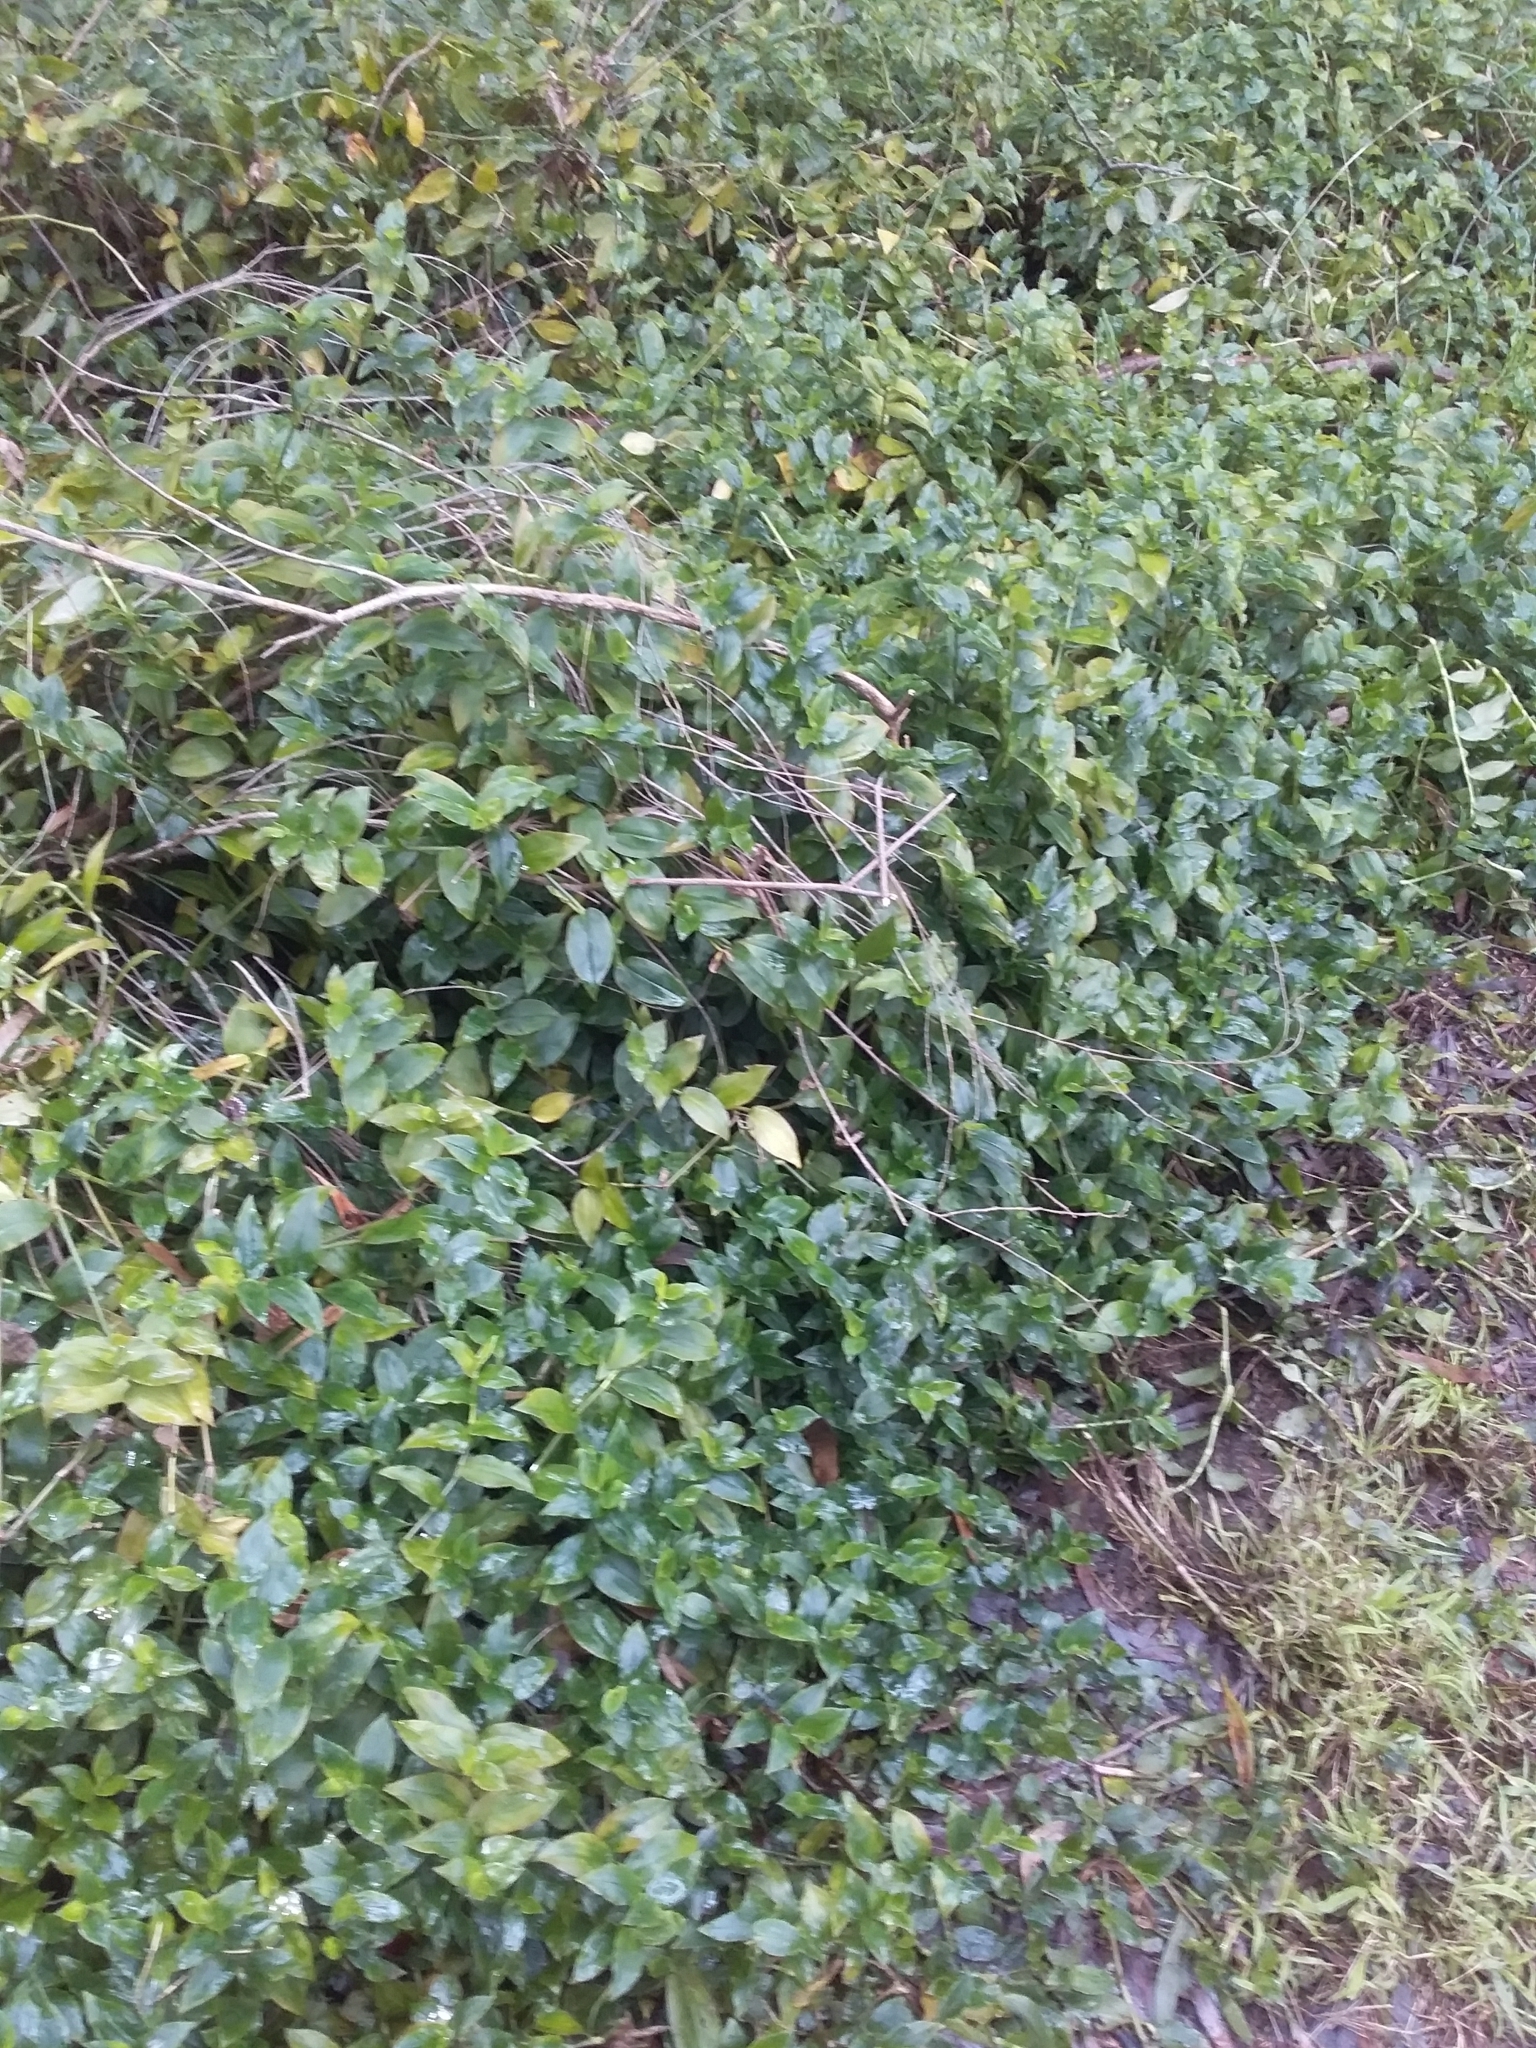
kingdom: Plantae
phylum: Tracheophyta
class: Liliopsida
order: Commelinales
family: Commelinaceae
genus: Tradescantia
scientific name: Tradescantia fluminensis
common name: Wandering-jew
